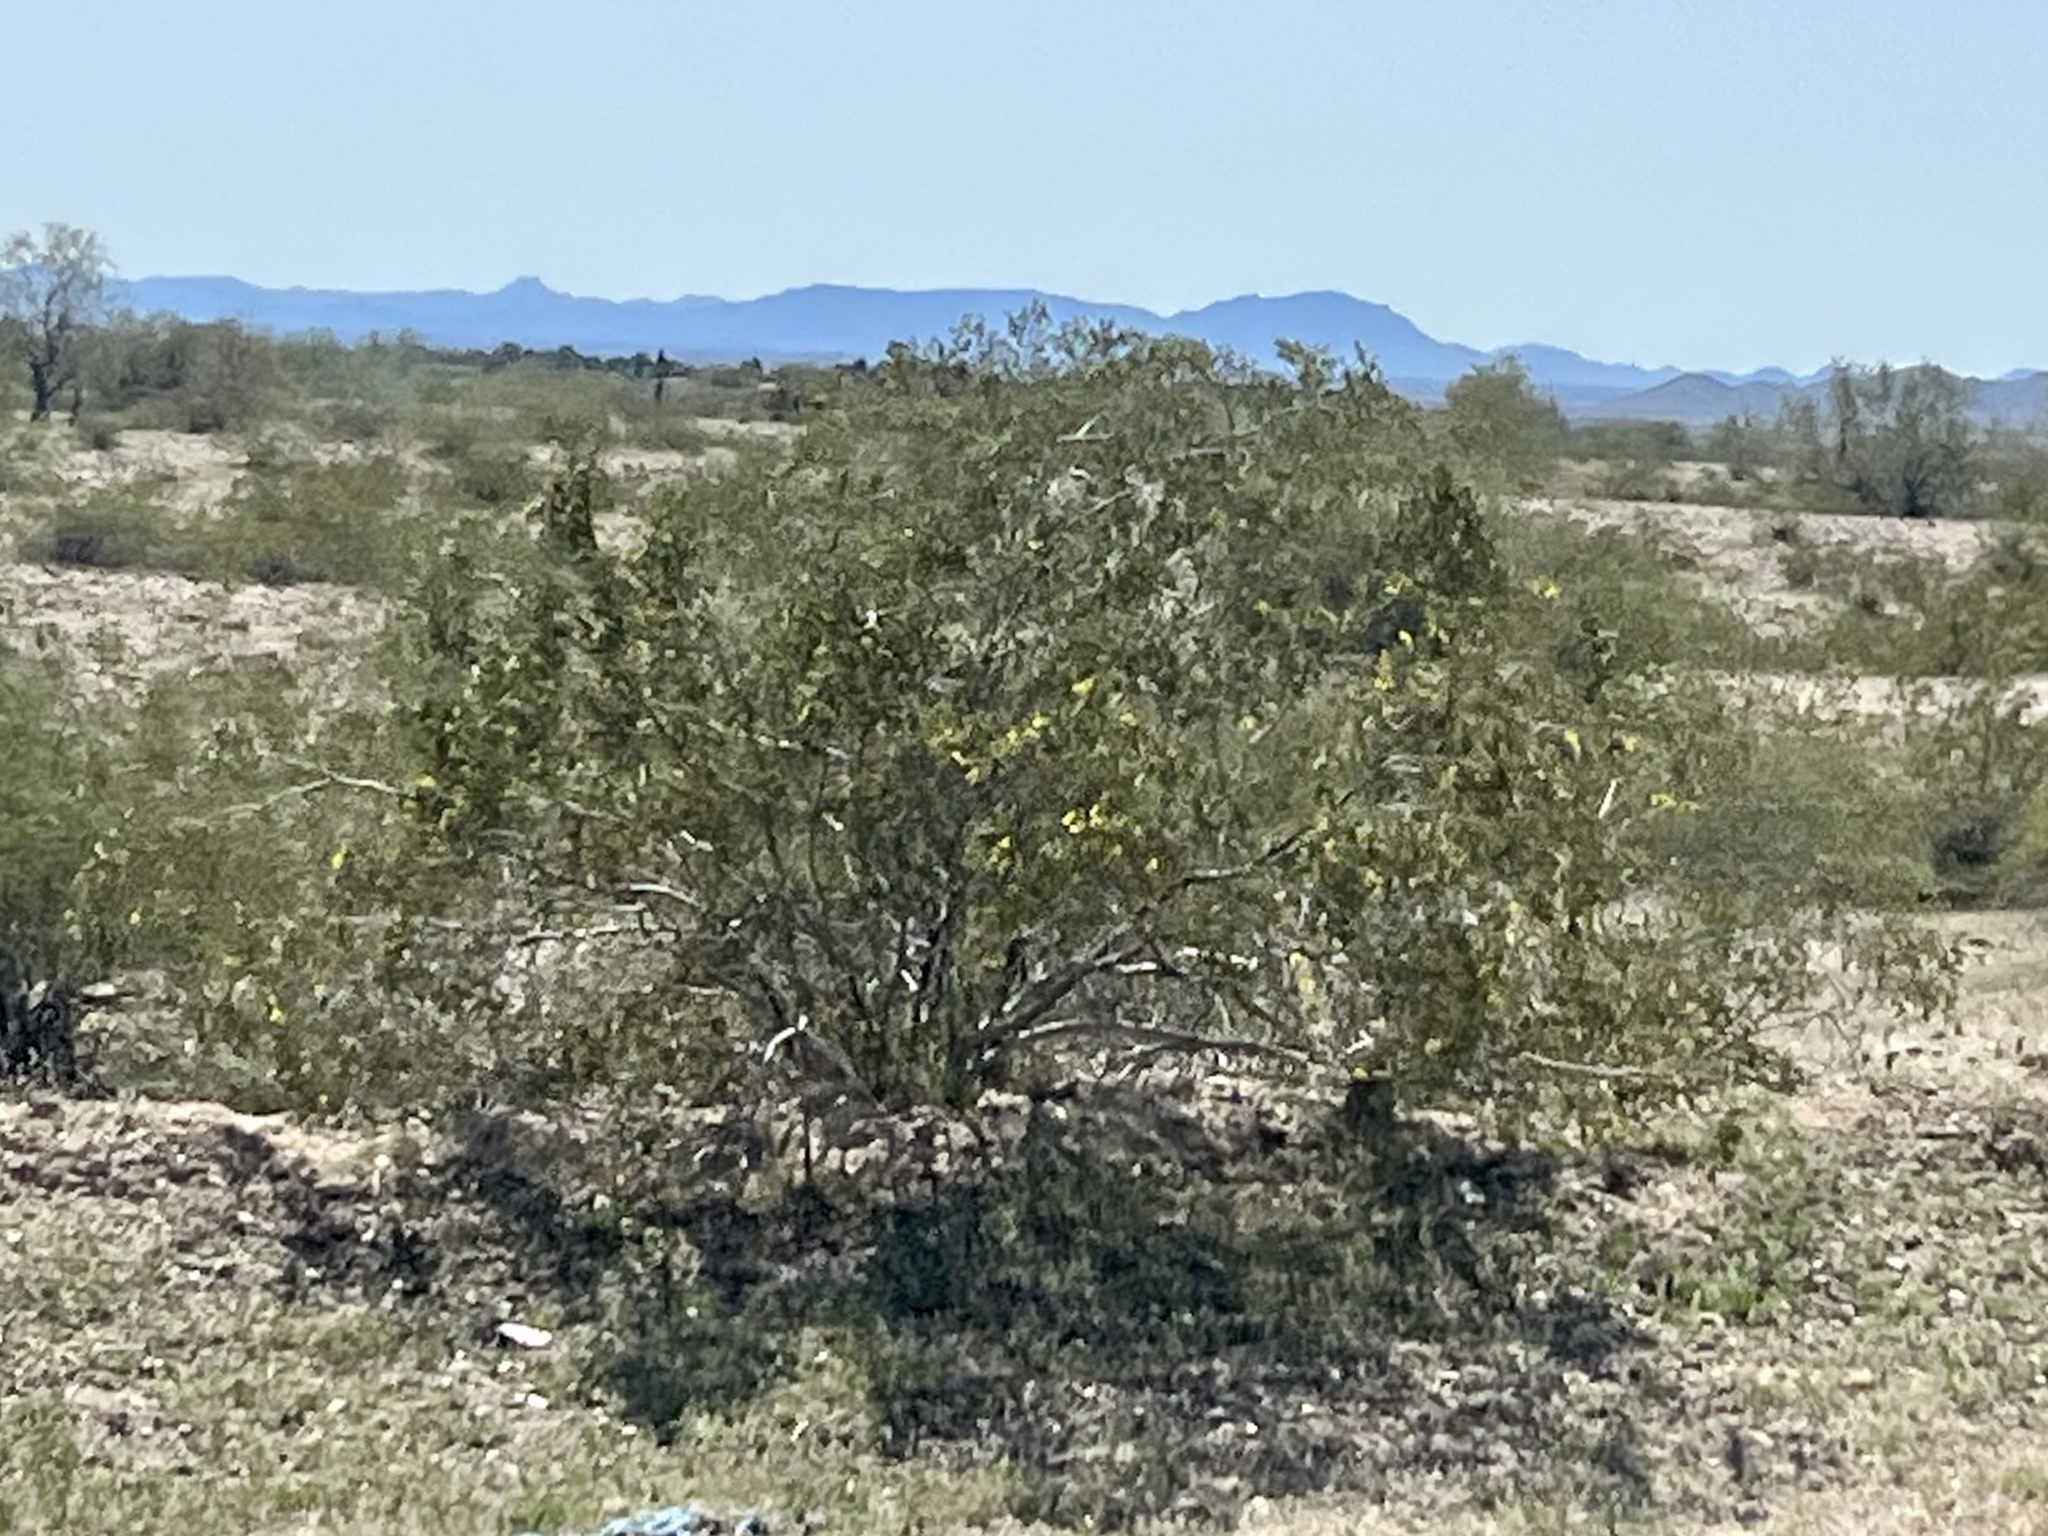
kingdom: Plantae
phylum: Tracheophyta
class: Magnoliopsida
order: Zygophyllales
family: Zygophyllaceae
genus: Larrea
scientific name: Larrea tridentata
